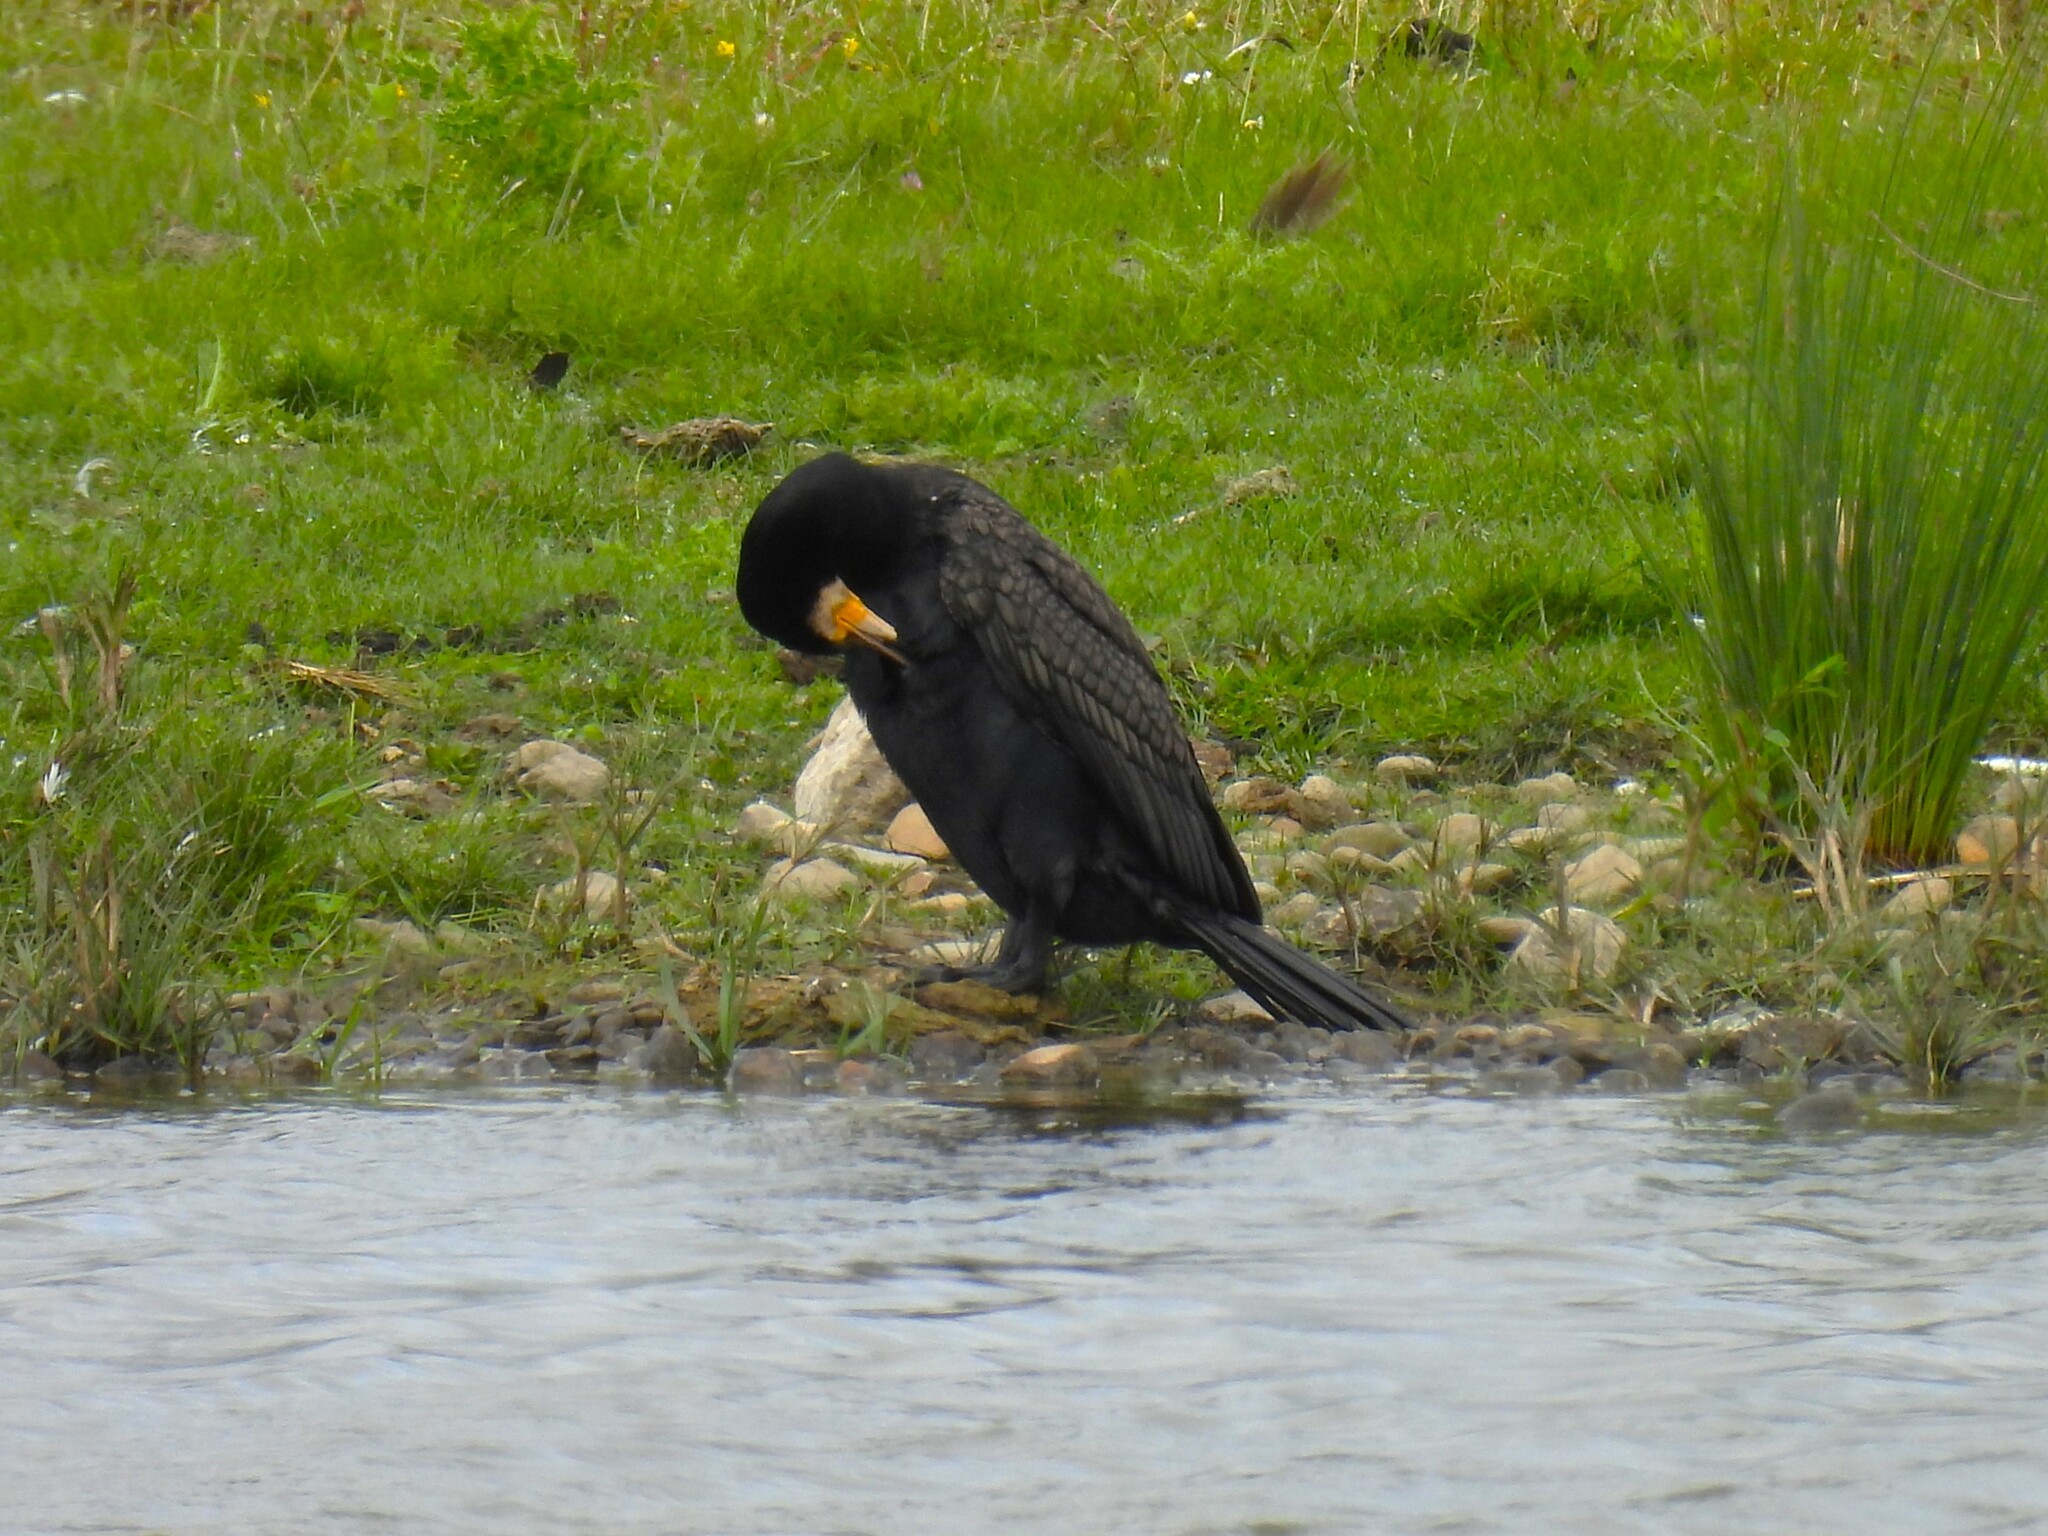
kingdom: Animalia
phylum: Chordata
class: Aves
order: Suliformes
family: Phalacrocoracidae
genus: Phalacrocorax
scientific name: Phalacrocorax carbo
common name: Great cormorant
